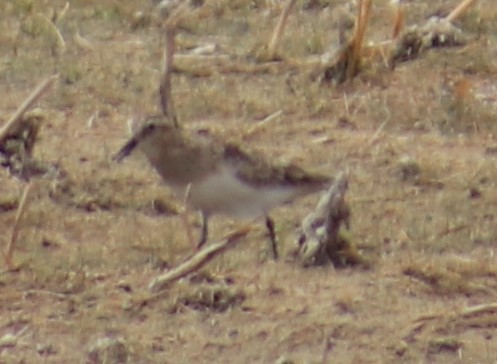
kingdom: Animalia
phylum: Chordata
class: Aves
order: Charadriiformes
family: Scolopacidae
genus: Calidris
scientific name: Calidris bairdii
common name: Baird's sandpiper
